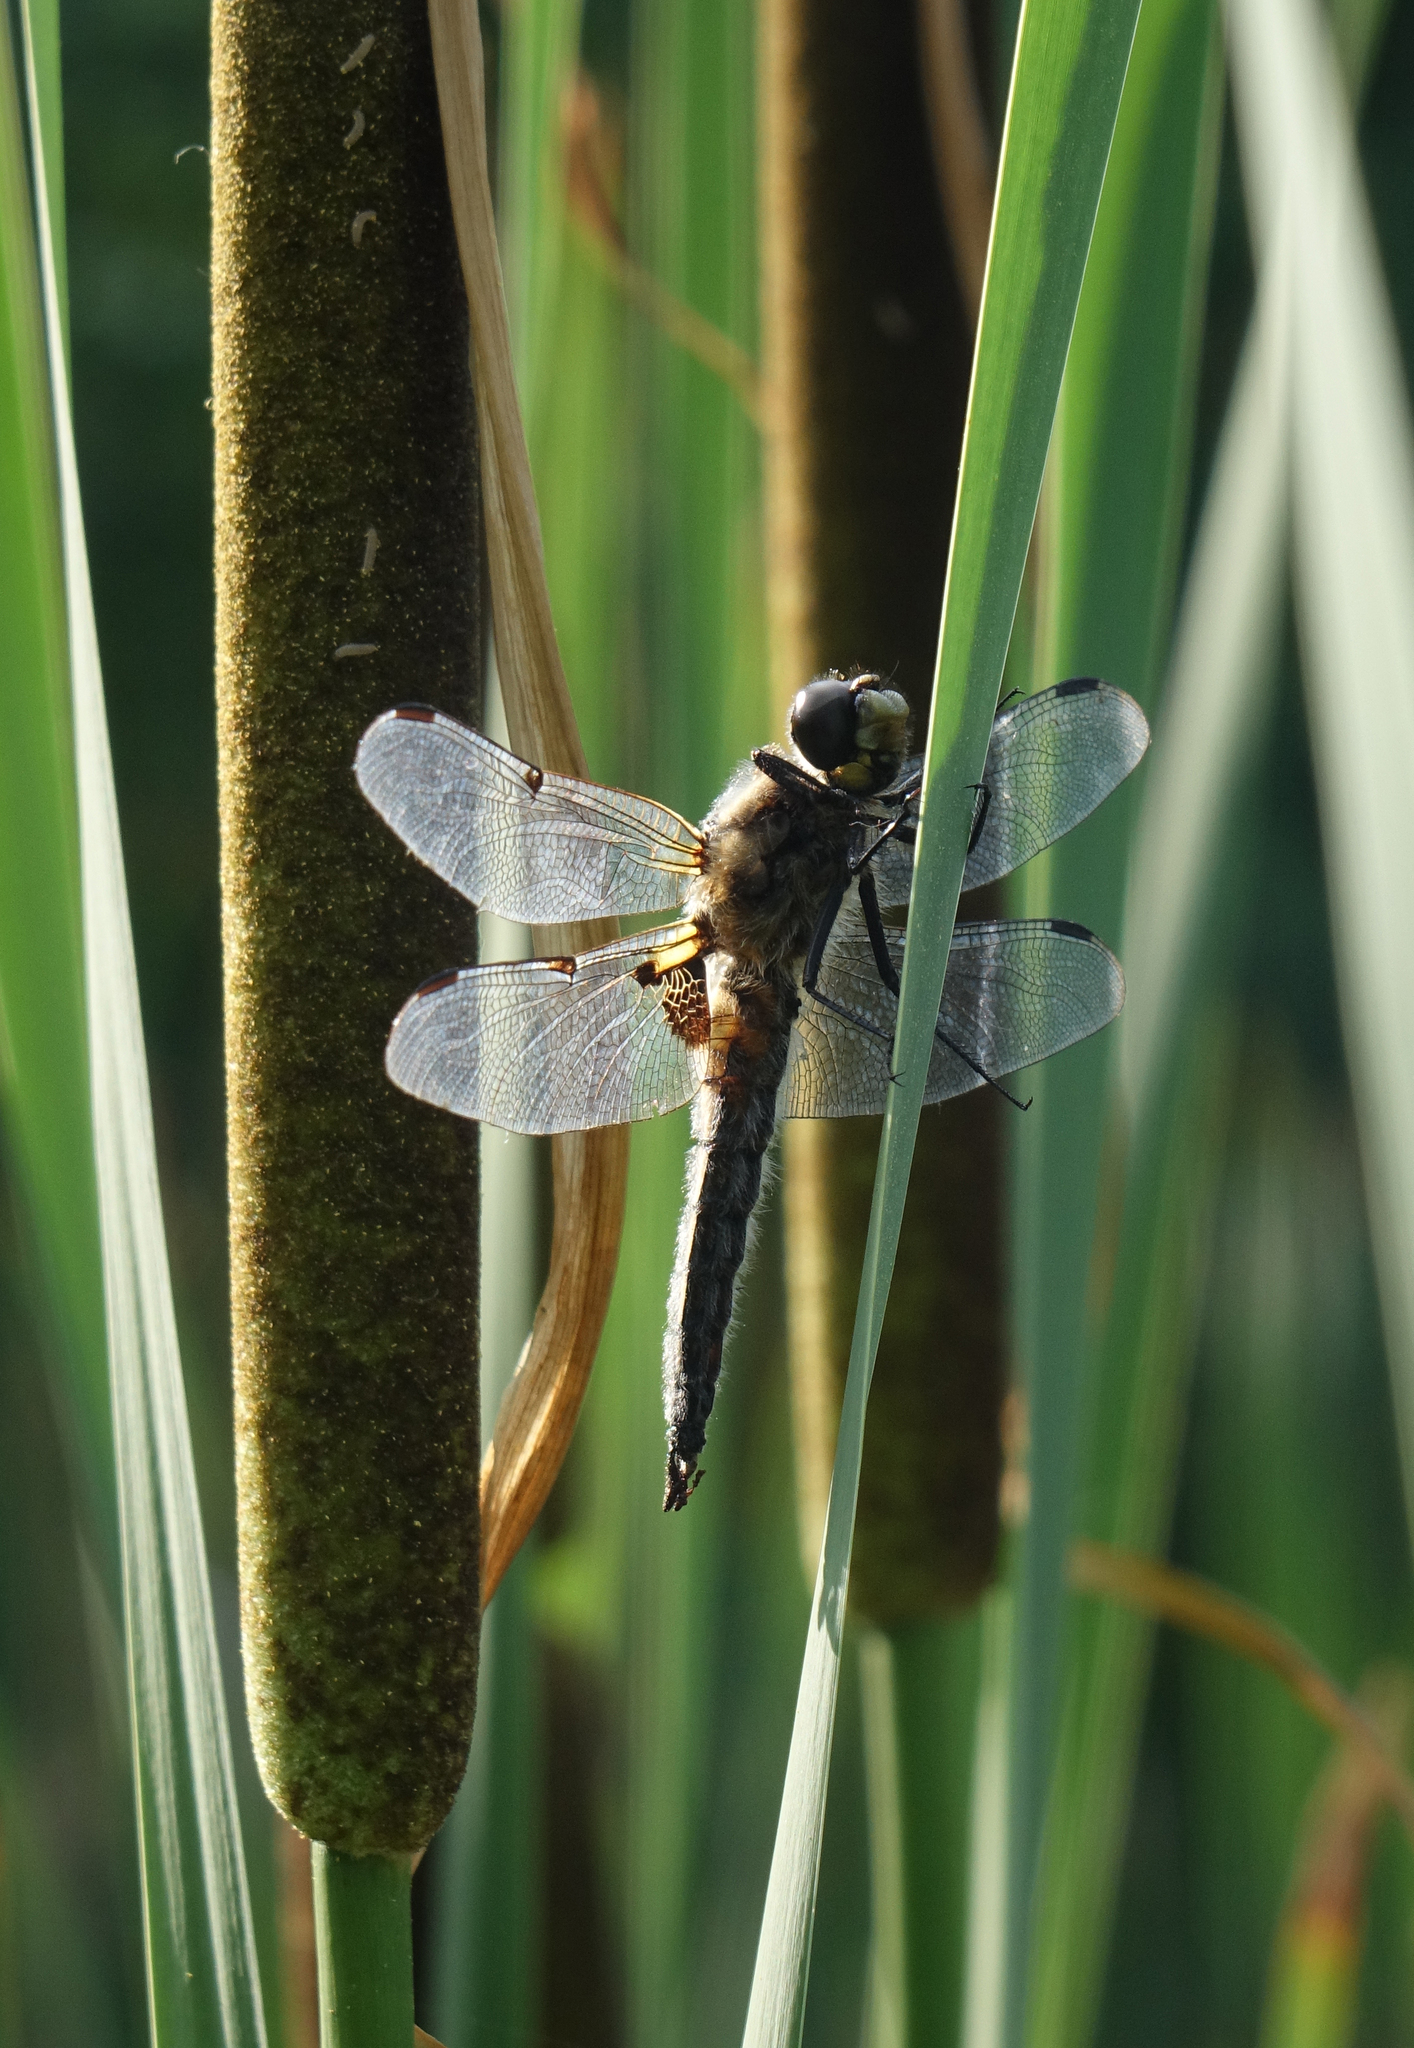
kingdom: Animalia
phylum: Arthropoda
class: Insecta
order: Odonata
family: Libellulidae
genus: Libellula
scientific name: Libellula quadrimaculata
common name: Four-spotted chaser
